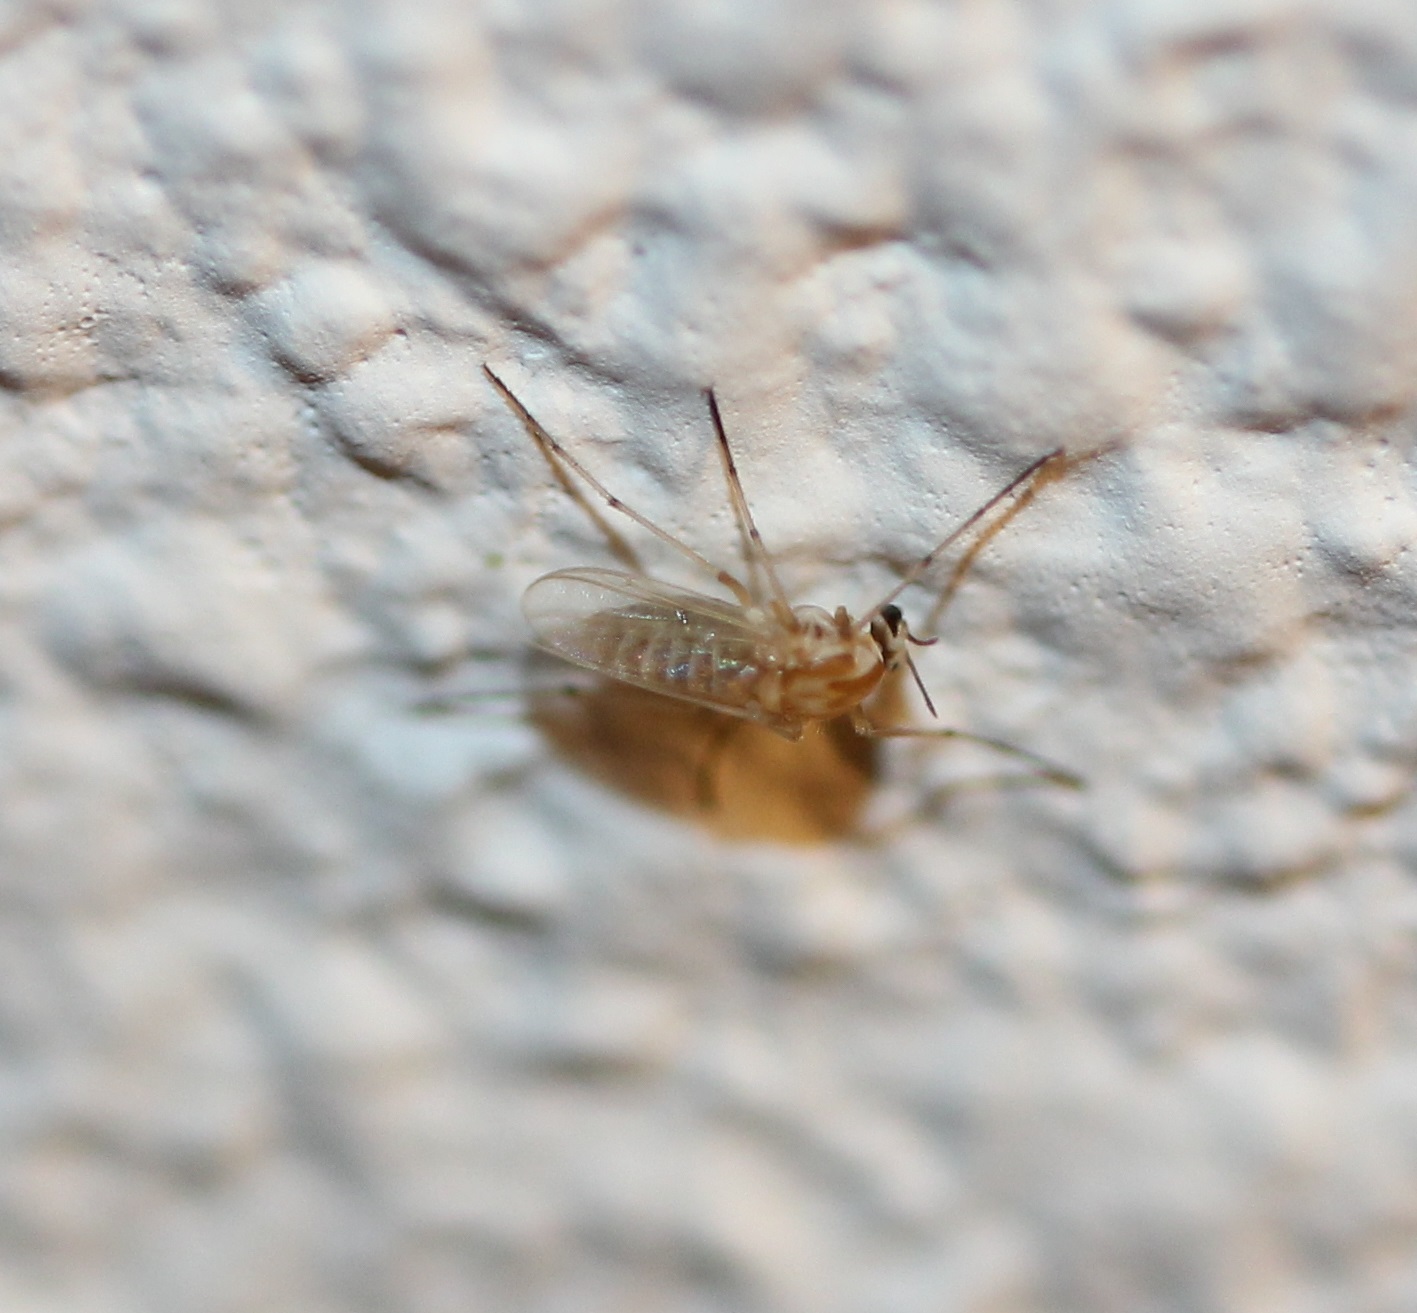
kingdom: Animalia
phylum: Arthropoda
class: Insecta
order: Diptera
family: Chironomidae
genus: Procladius
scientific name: Procladius bellus
